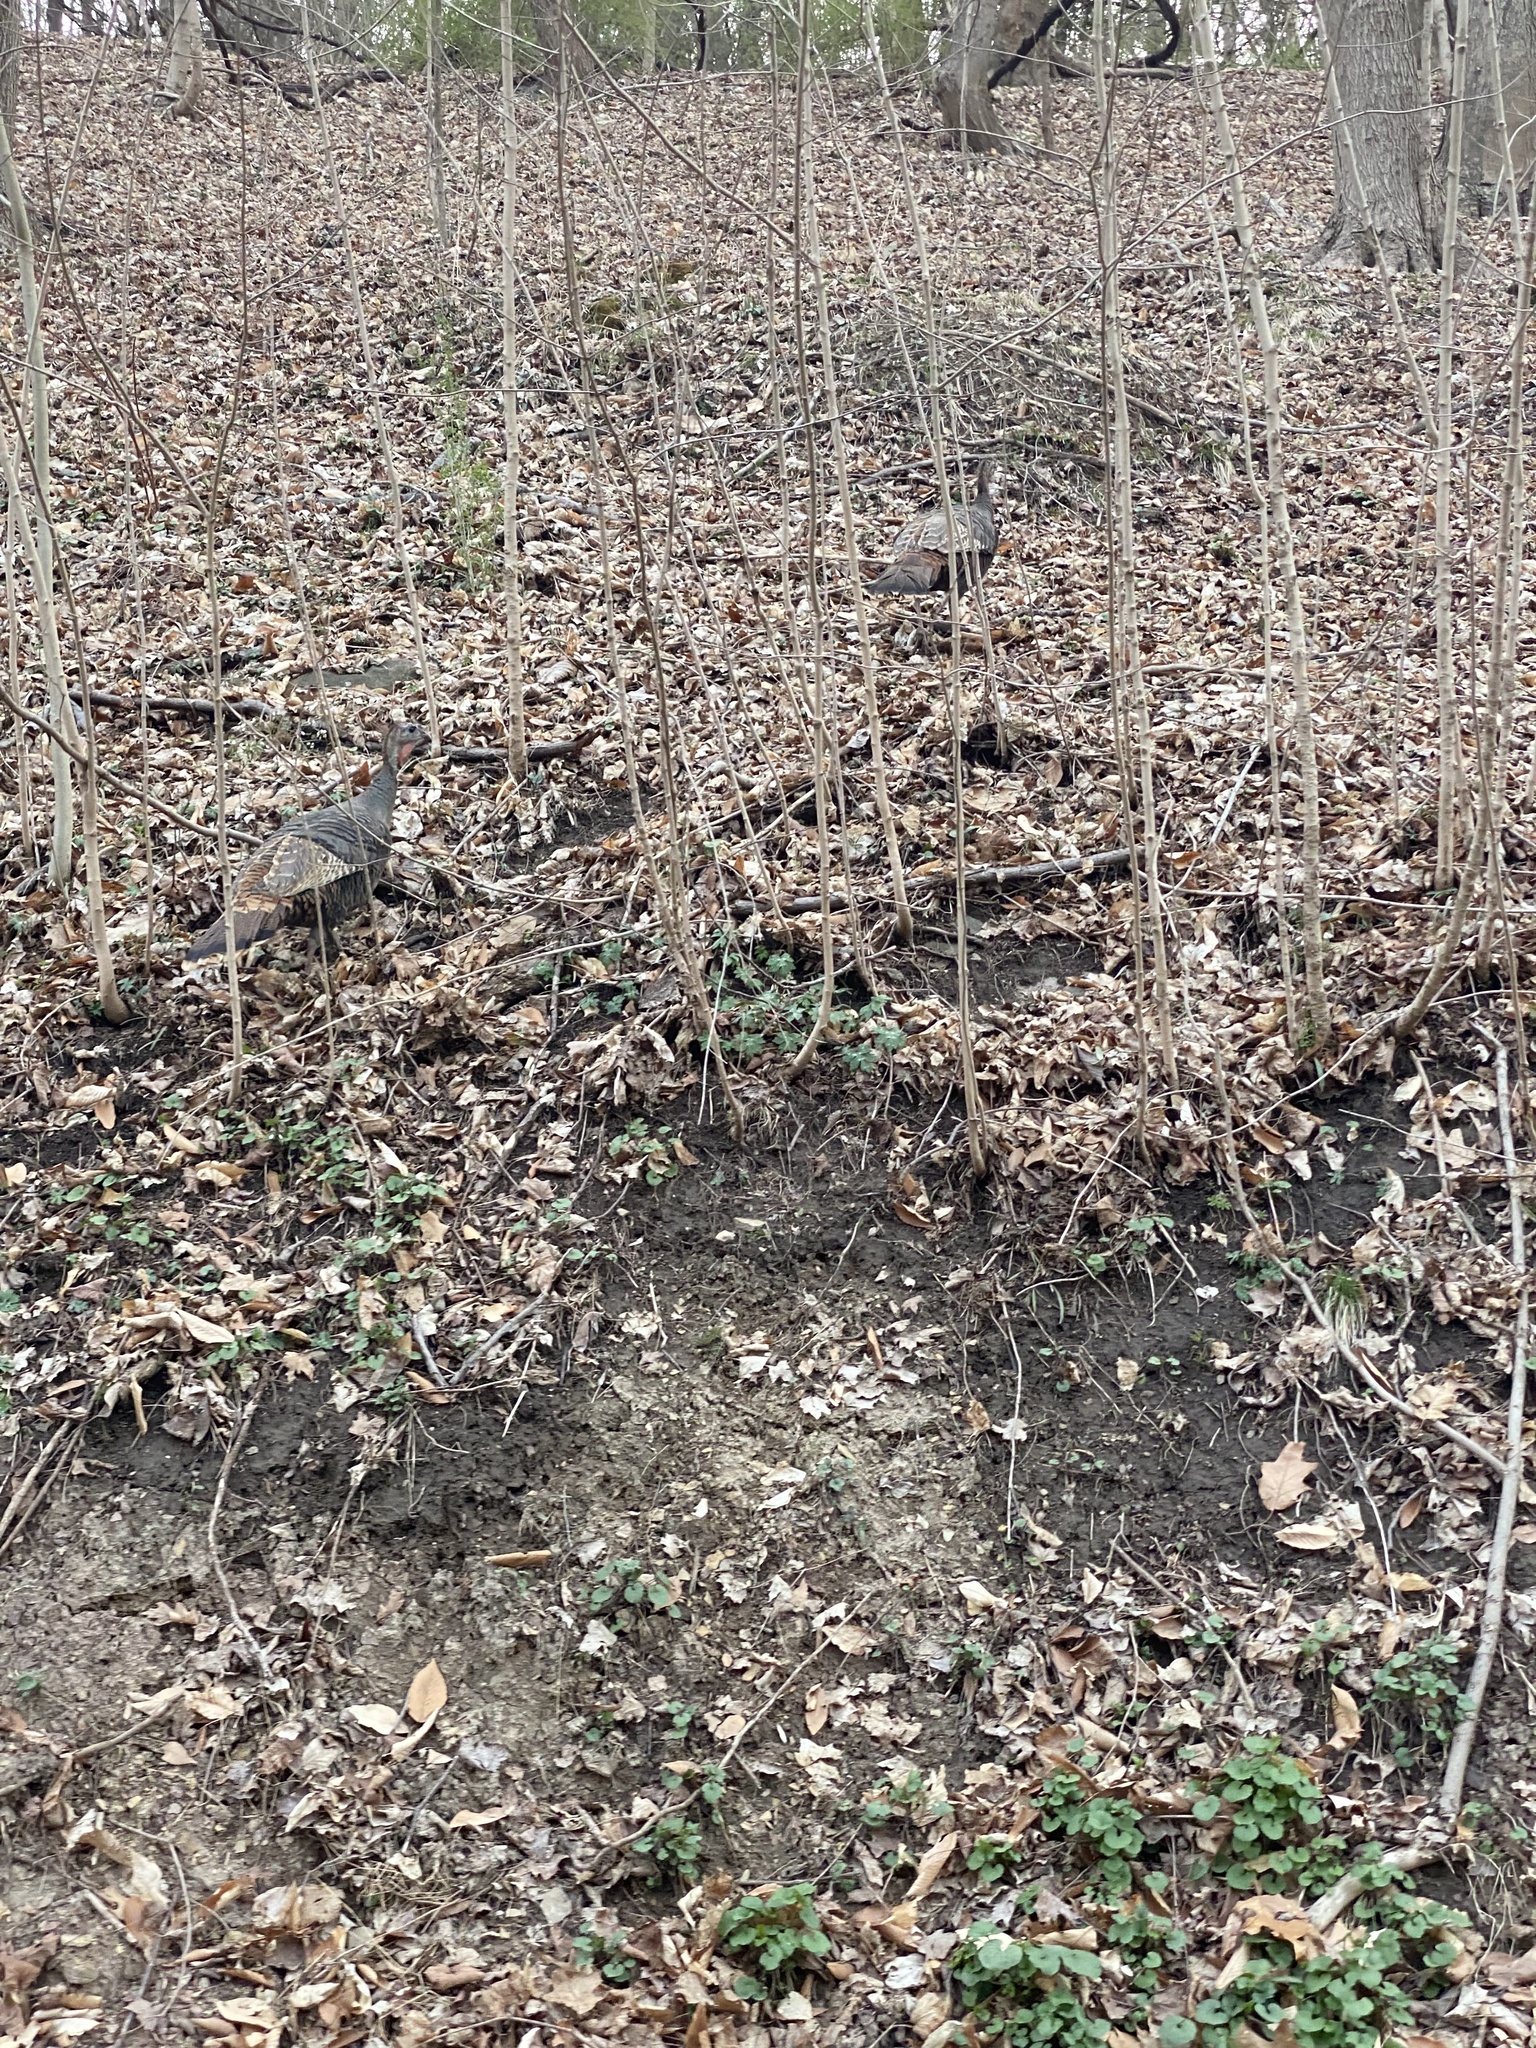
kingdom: Animalia
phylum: Chordata
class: Aves
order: Galliformes
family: Phasianidae
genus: Meleagris
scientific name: Meleagris gallopavo
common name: Wild turkey
